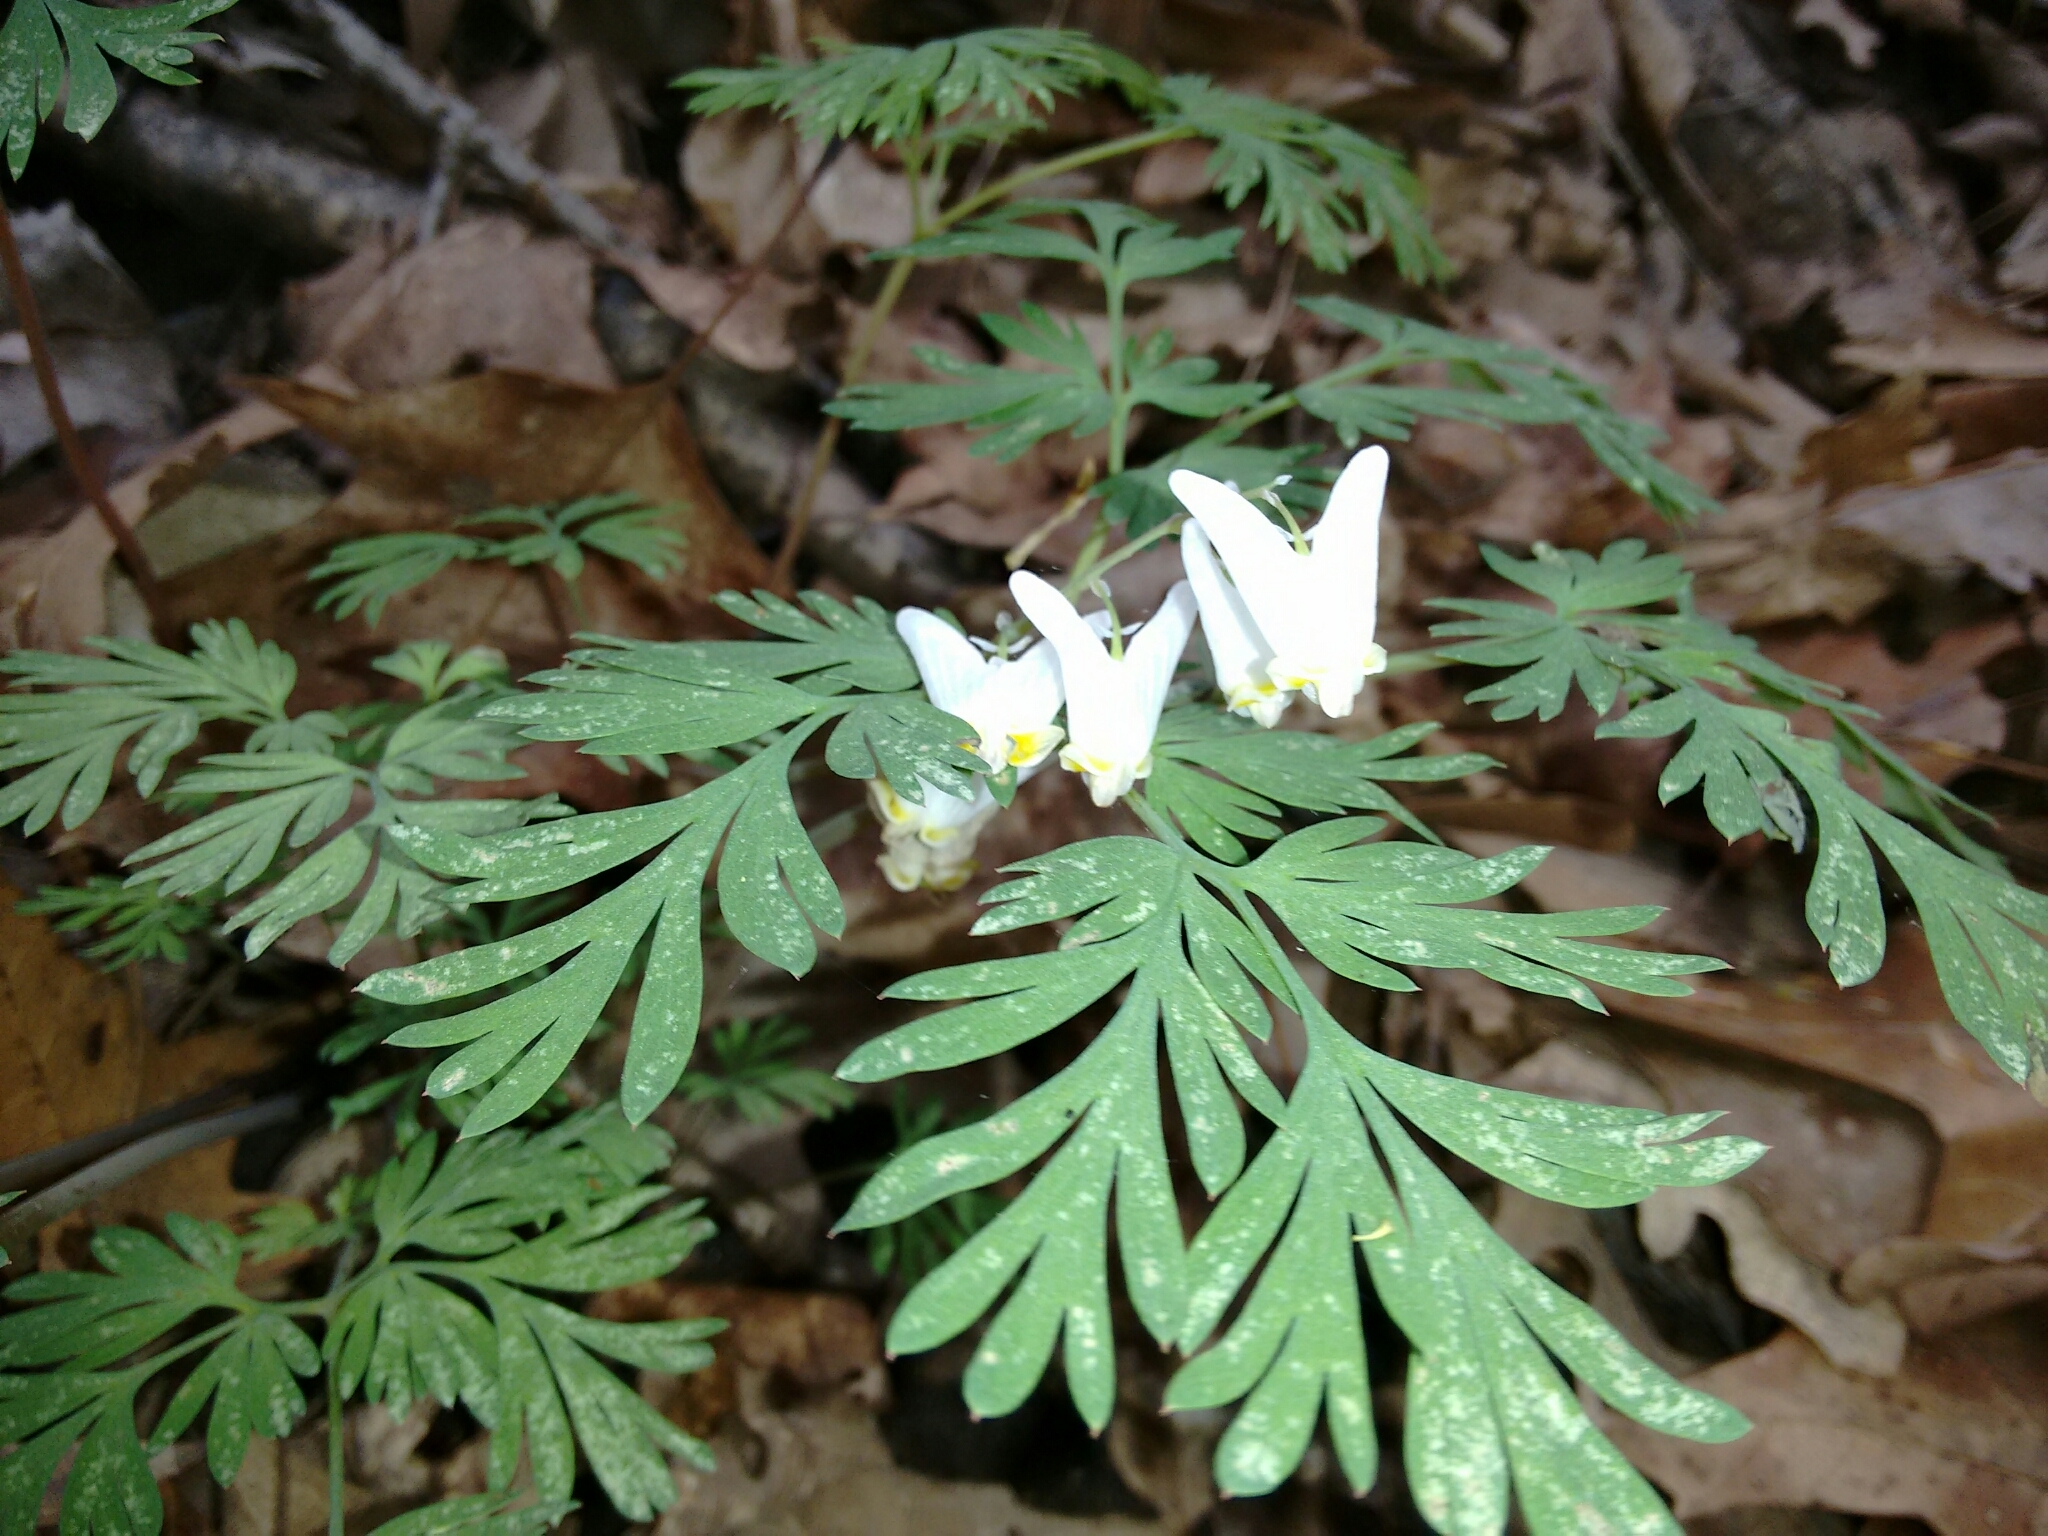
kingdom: Plantae
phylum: Tracheophyta
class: Magnoliopsida
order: Ranunculales
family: Papaveraceae
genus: Dicentra
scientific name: Dicentra cucullaria
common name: Dutchman's breeches
